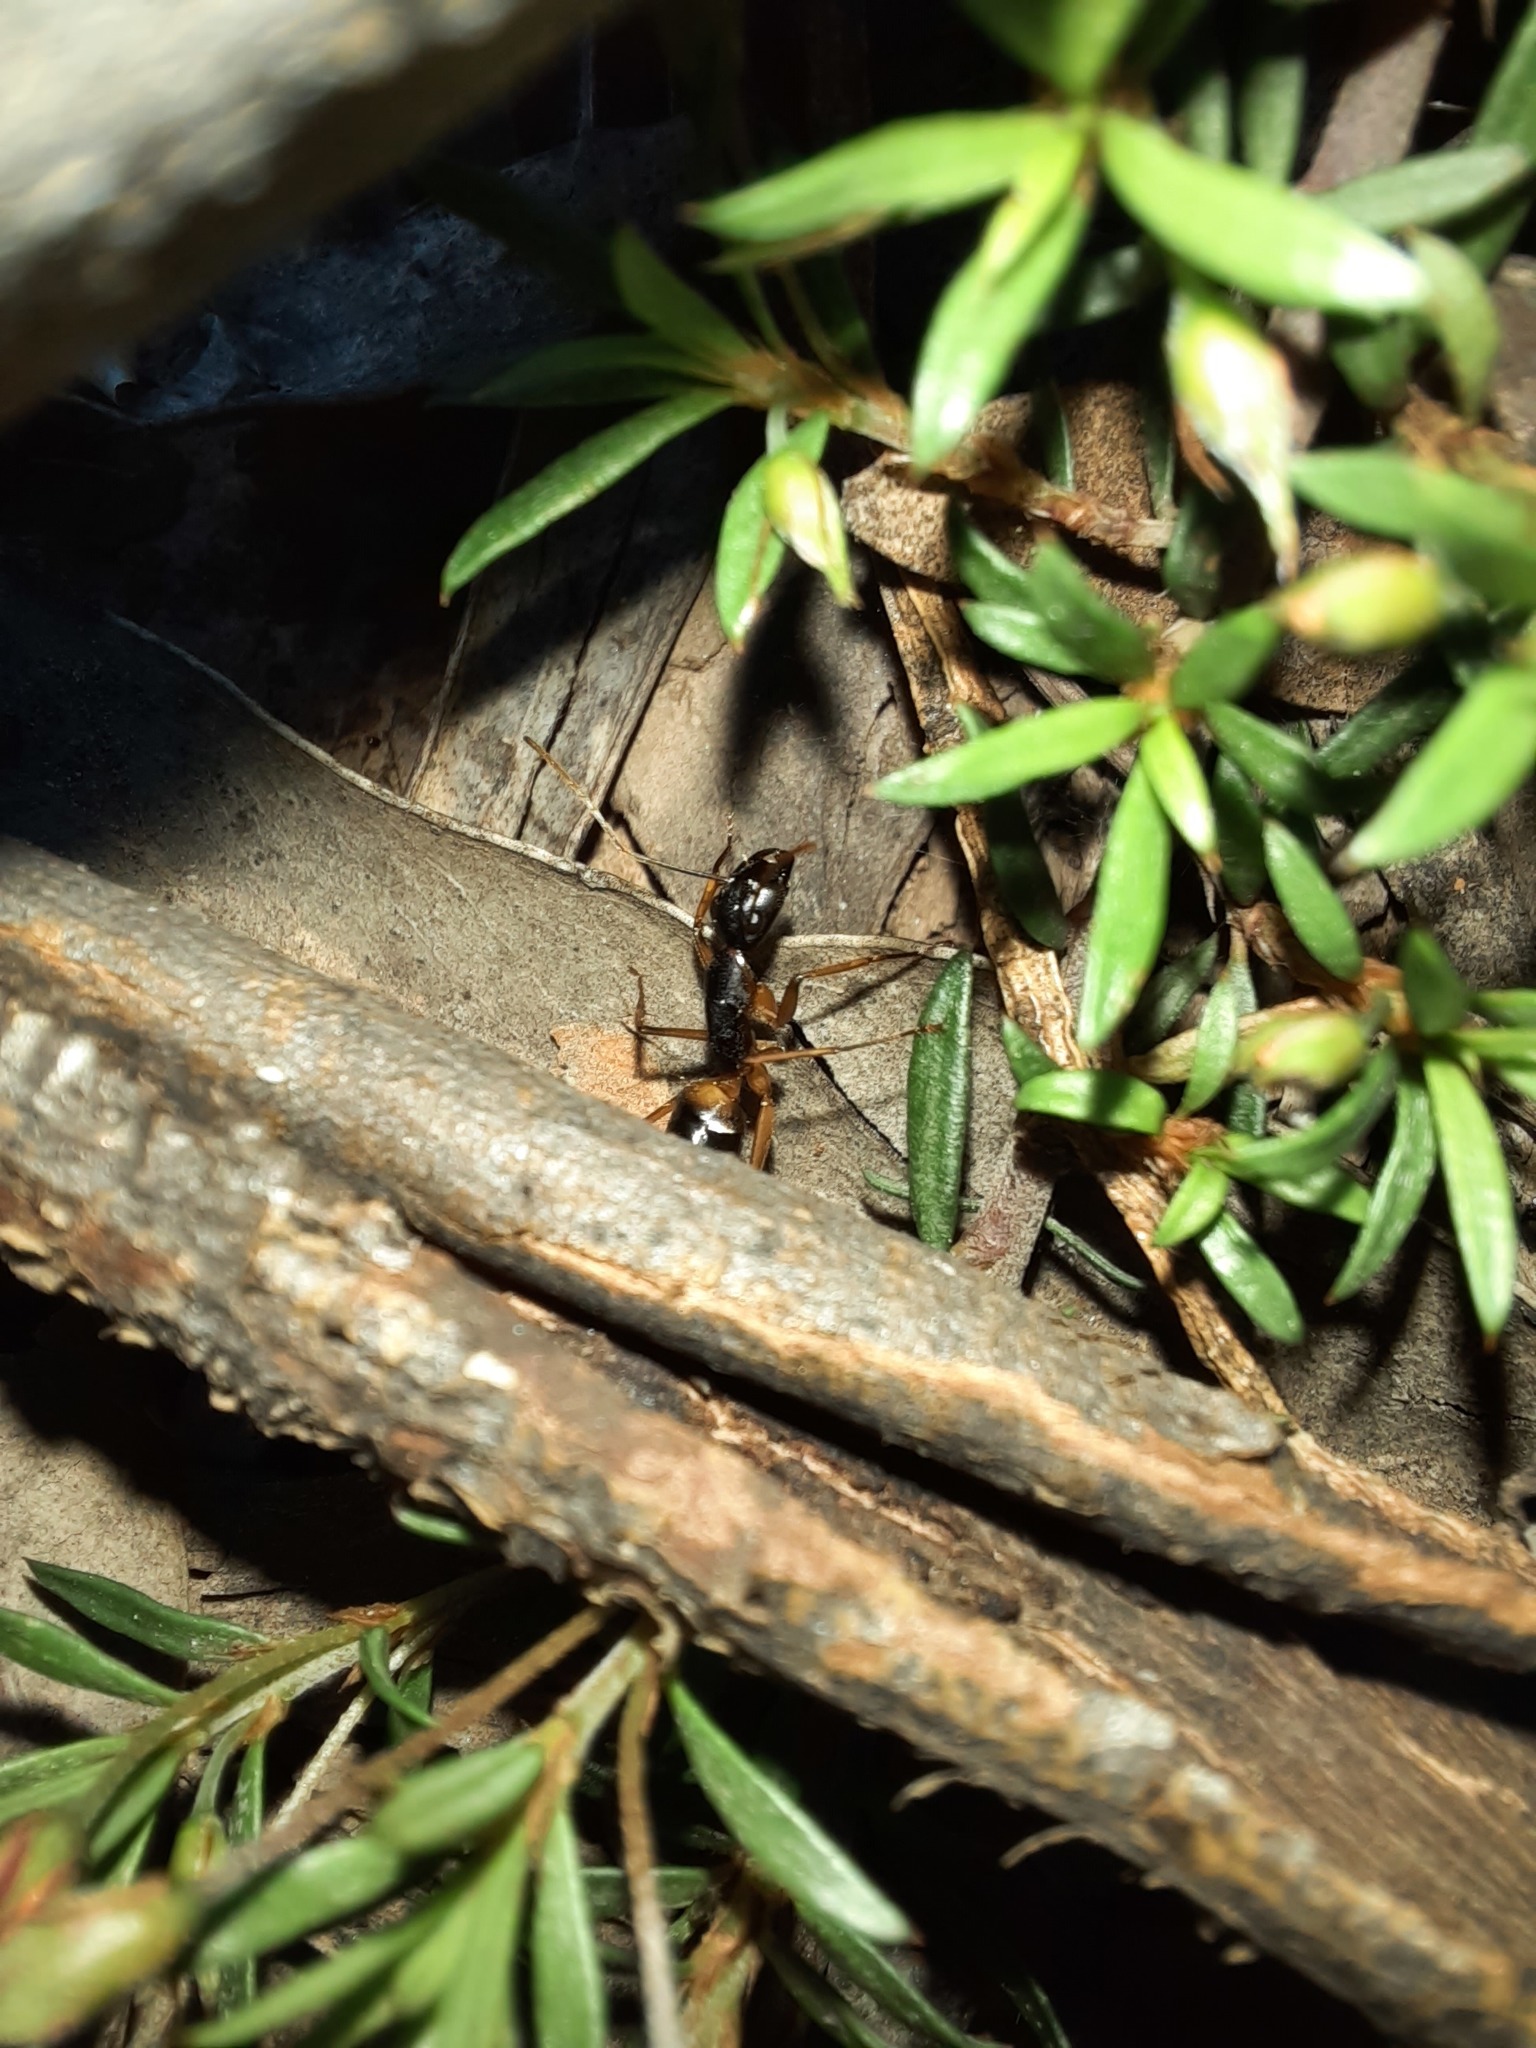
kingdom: Animalia
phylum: Arthropoda
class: Insecta
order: Hymenoptera
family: Formicidae
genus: Camponotus
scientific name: Camponotus consobrinus
